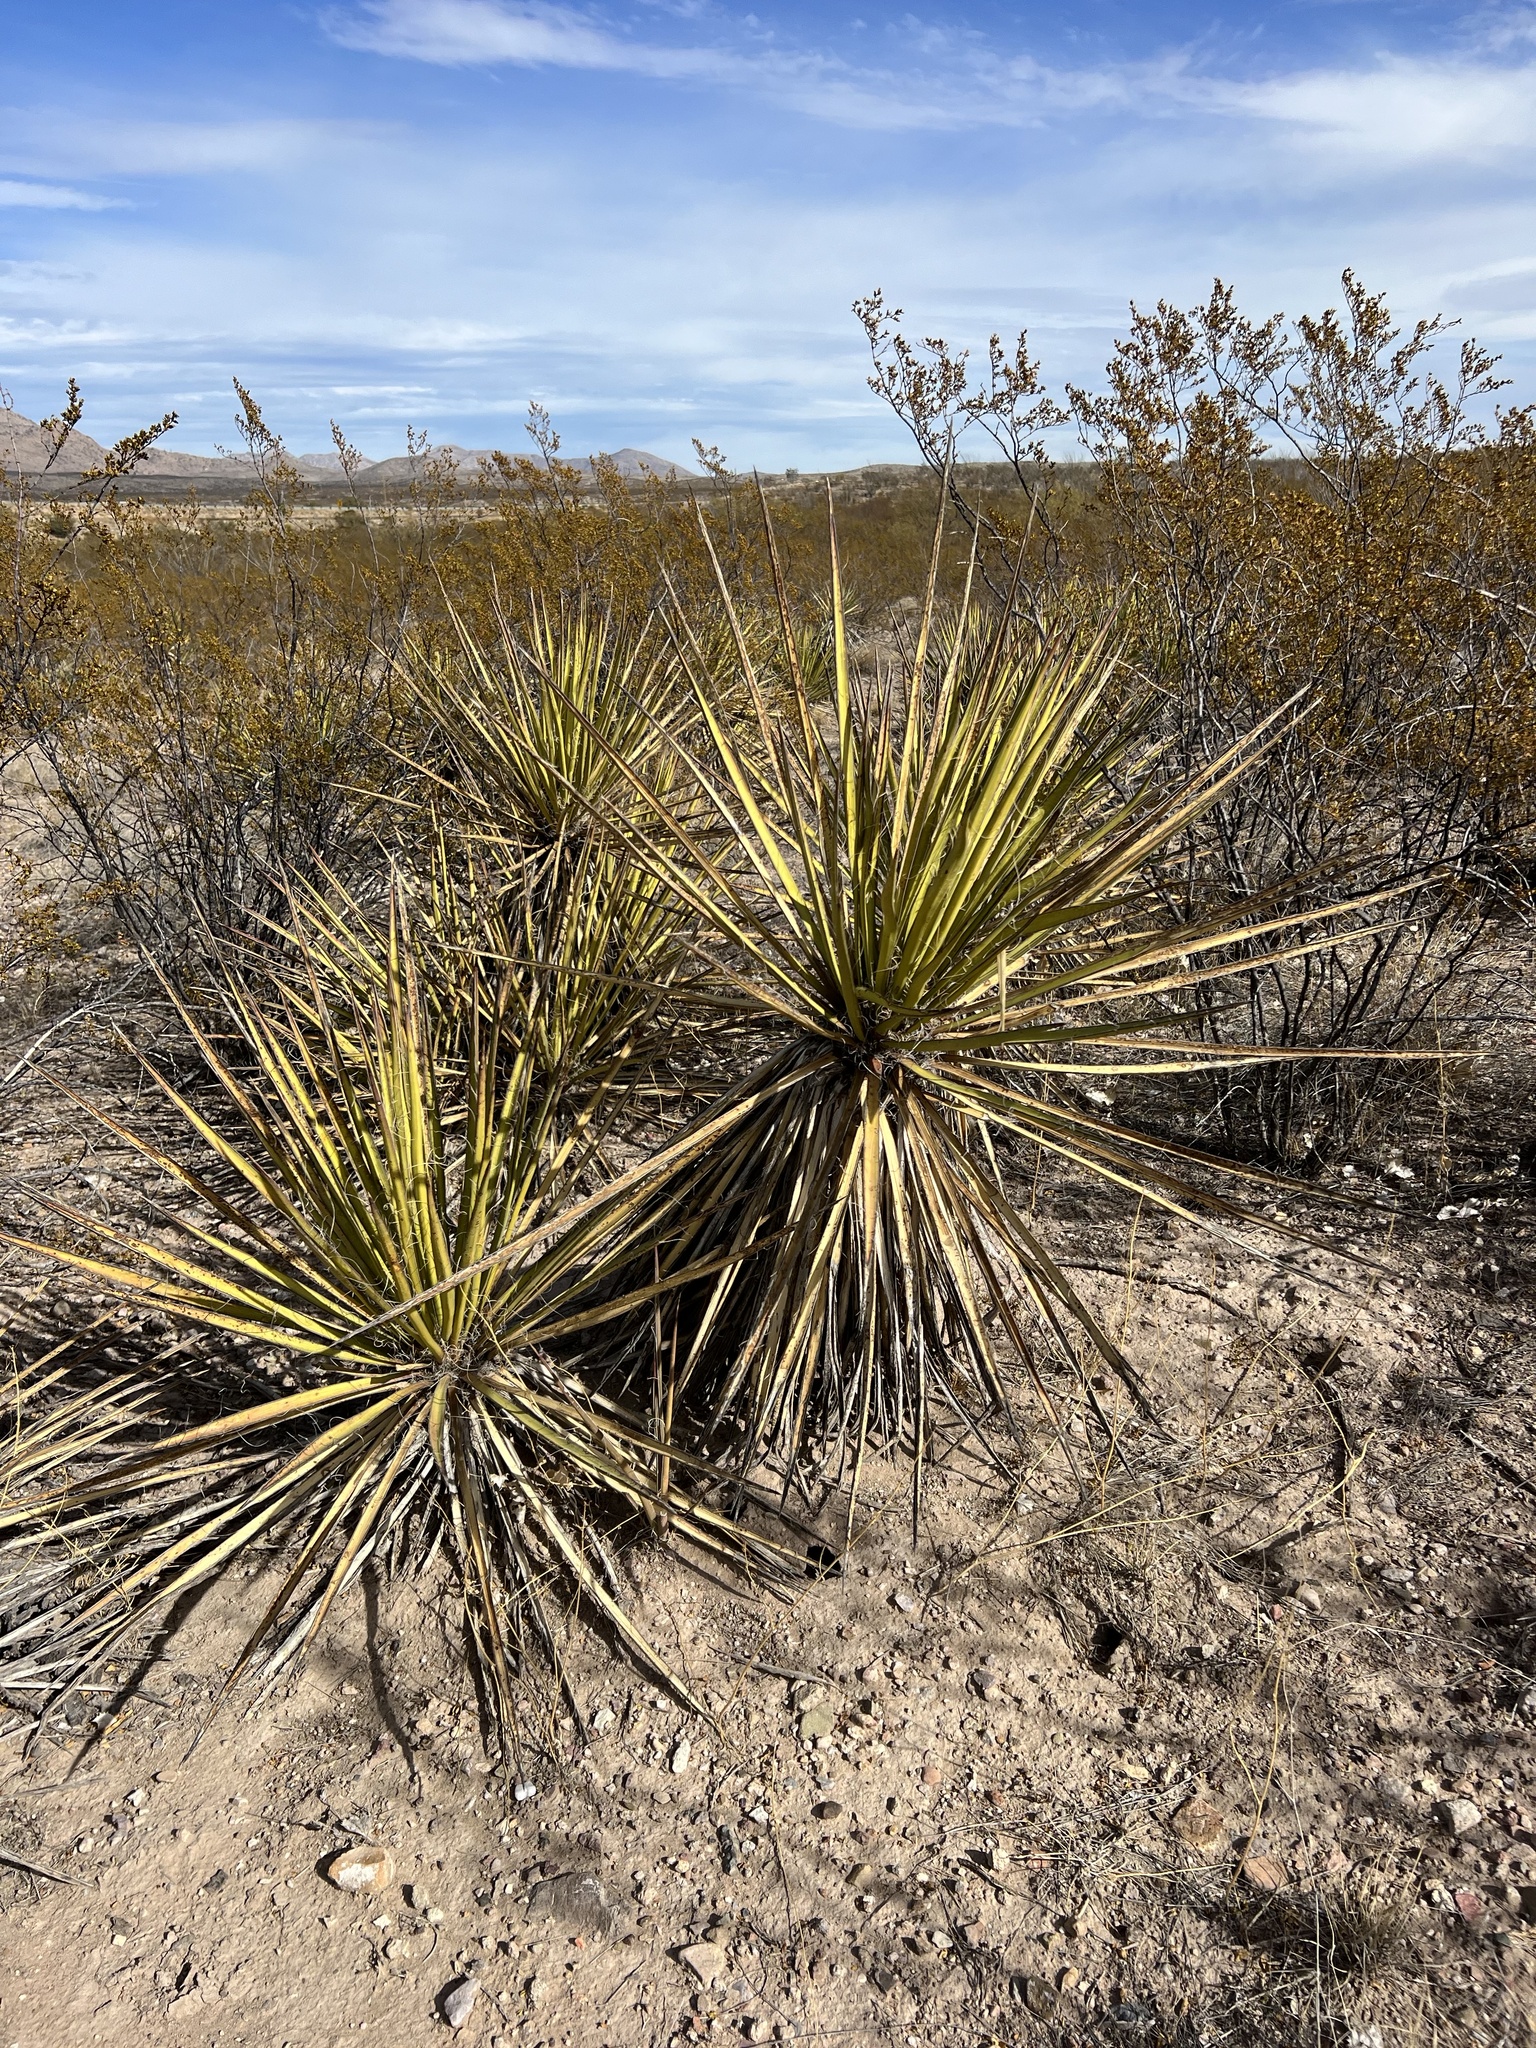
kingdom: Plantae
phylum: Tracheophyta
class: Liliopsida
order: Asparagales
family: Asparagaceae
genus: Yucca
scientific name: Yucca baccata
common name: Banana yucca
